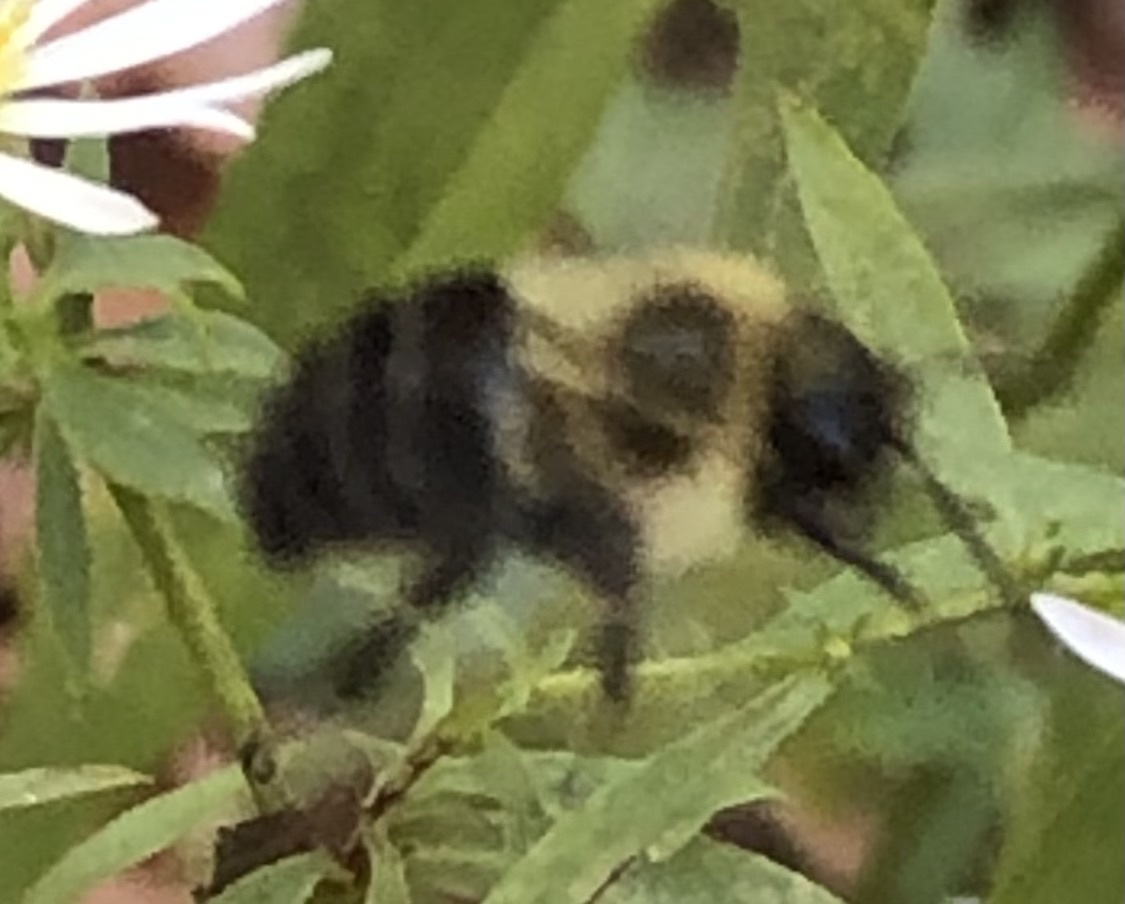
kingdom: Animalia
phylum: Arthropoda
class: Insecta
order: Hymenoptera
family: Apidae
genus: Bombus
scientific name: Bombus impatiens
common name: Common eastern bumble bee
